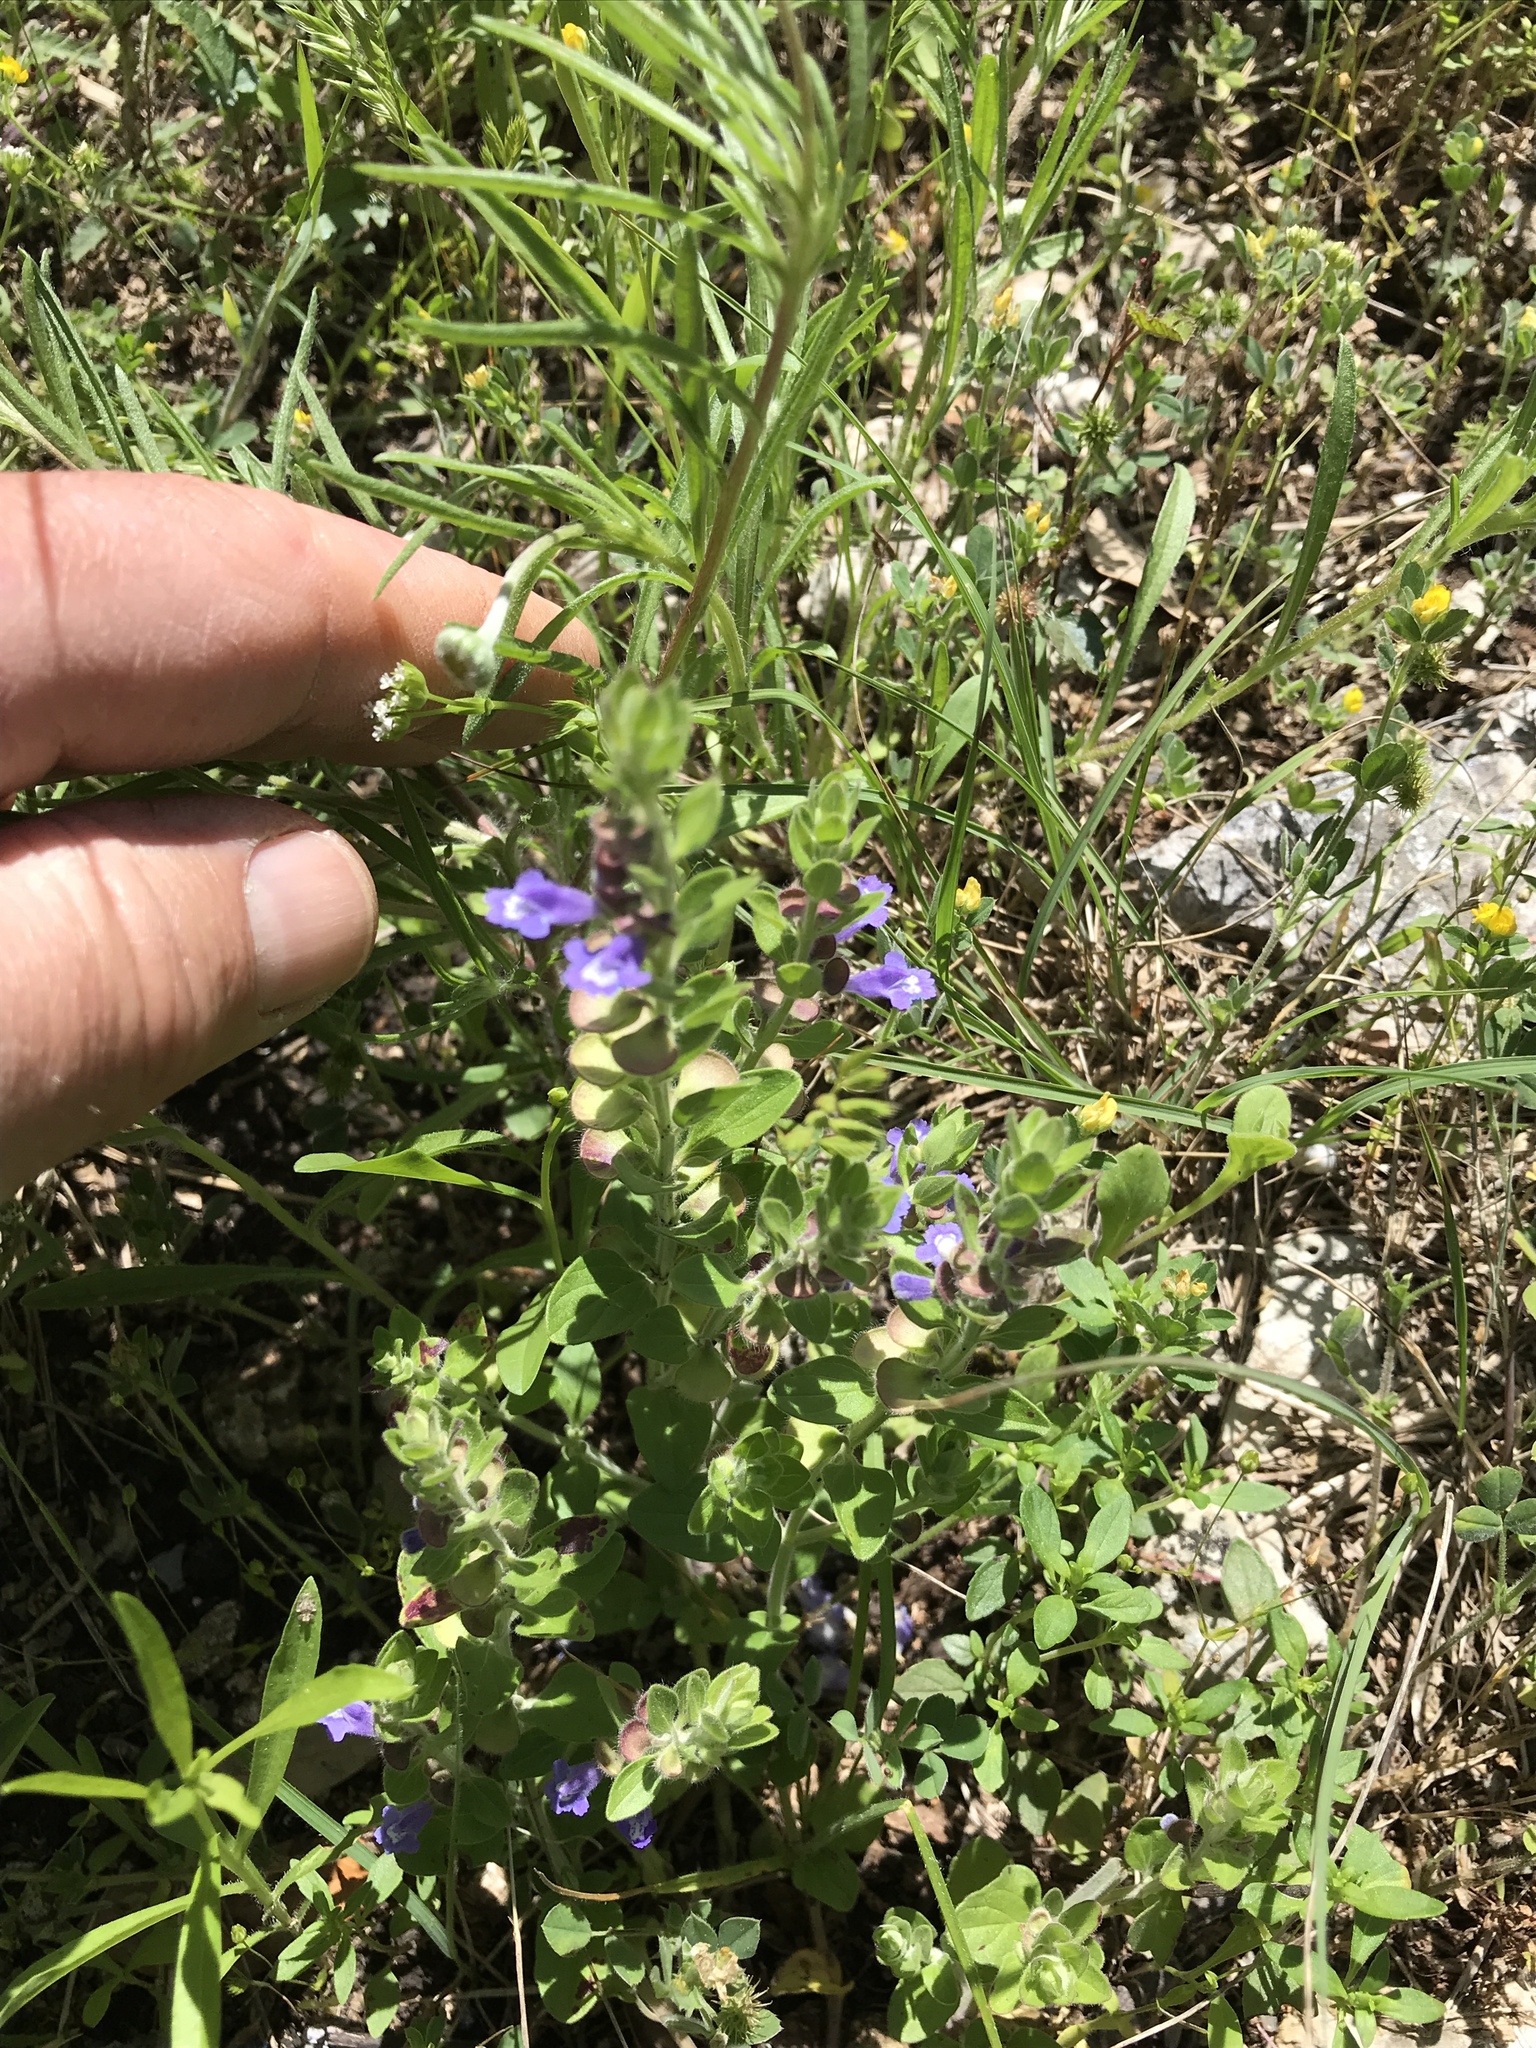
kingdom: Plantae
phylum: Tracheophyta
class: Magnoliopsida
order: Lamiales
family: Lamiaceae
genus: Scutellaria
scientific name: Scutellaria drummondii
